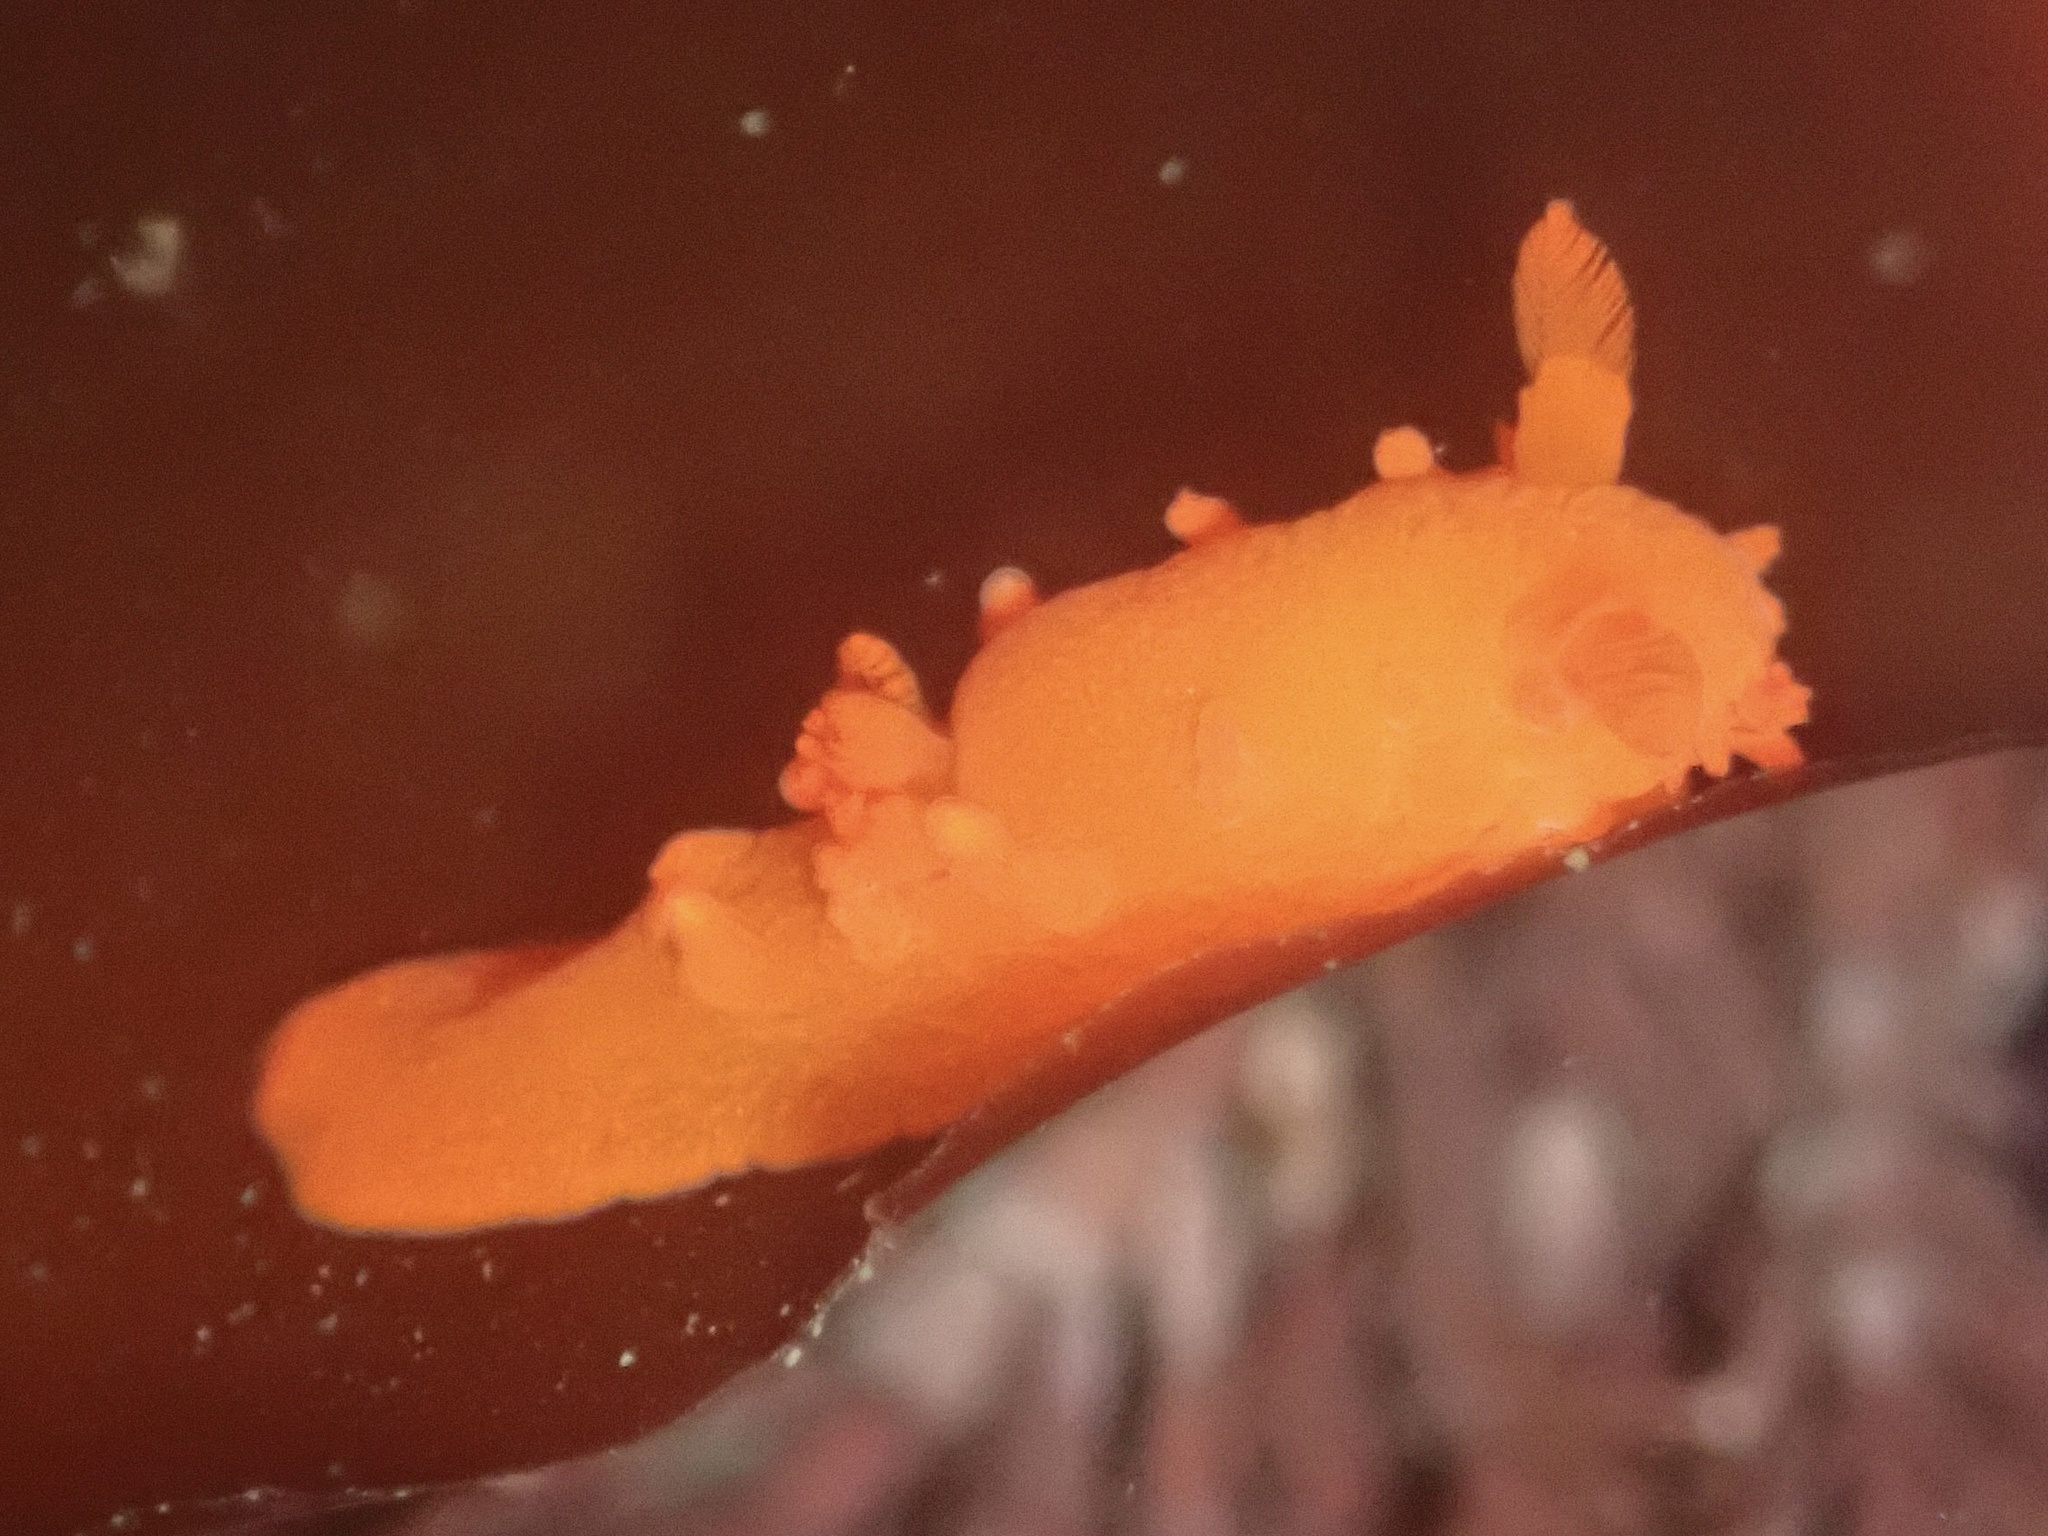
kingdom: Animalia
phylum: Mollusca
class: Gastropoda
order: Nudibranchia
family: Polyceridae
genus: Triopha
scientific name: Triopha maculata
